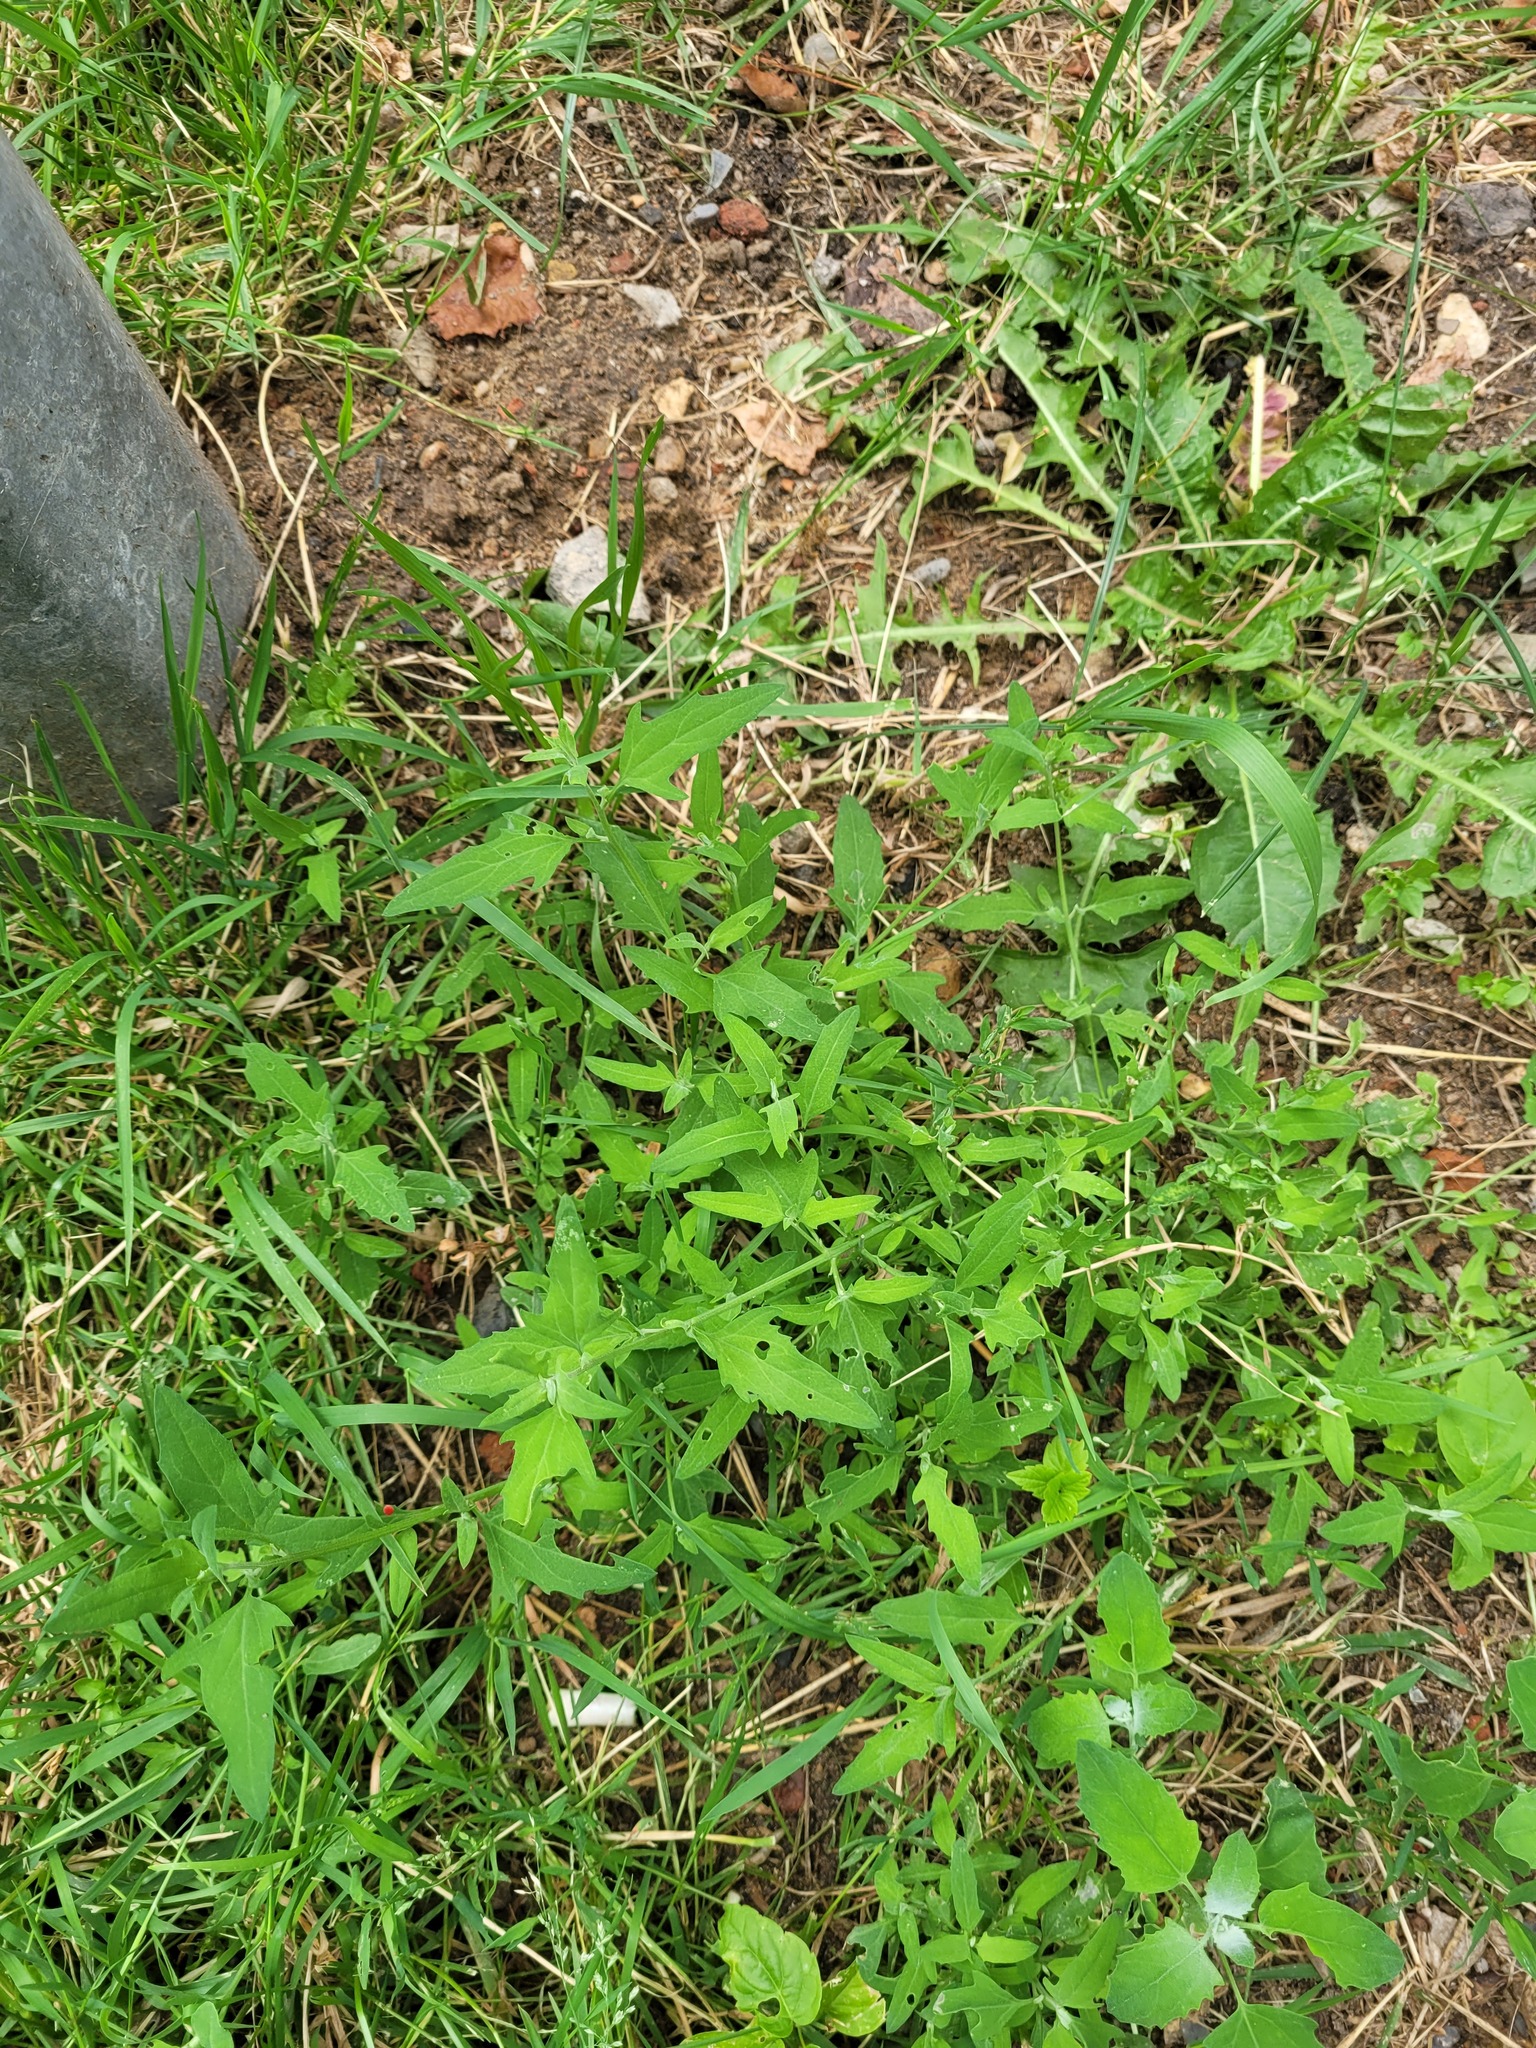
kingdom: Plantae
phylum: Tracheophyta
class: Magnoliopsida
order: Caryophyllales
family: Amaranthaceae
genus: Atriplex
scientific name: Atriplex patula
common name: Common orache
